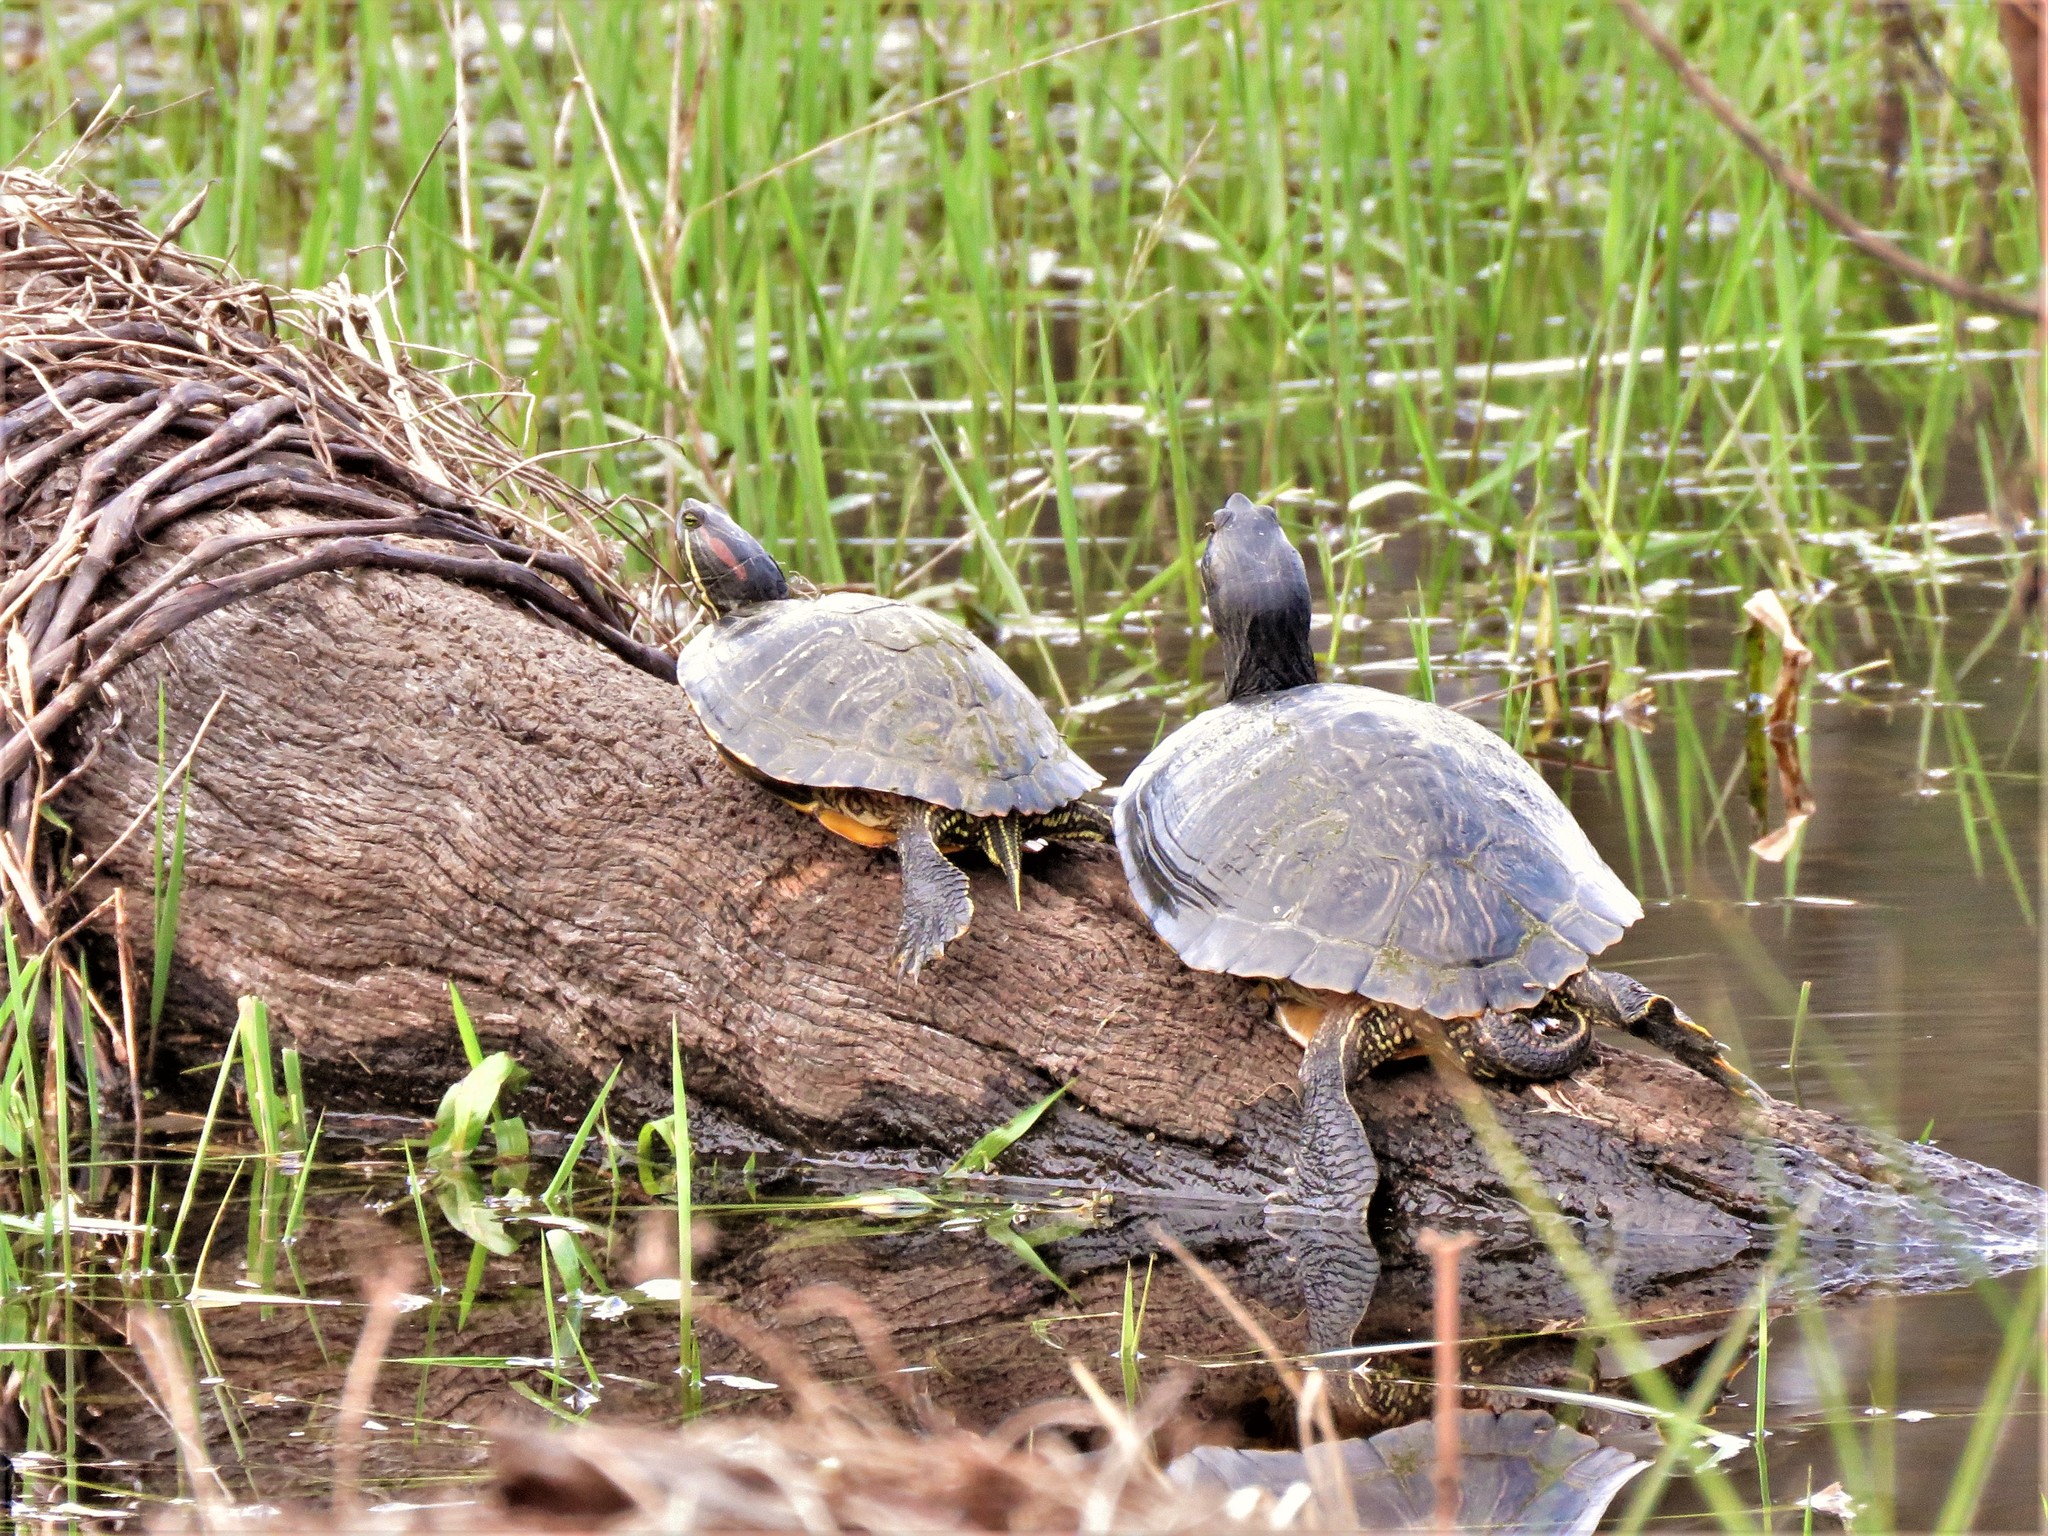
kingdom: Animalia
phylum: Chordata
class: Testudines
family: Emydidae
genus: Trachemys
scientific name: Trachemys scripta
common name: Slider
